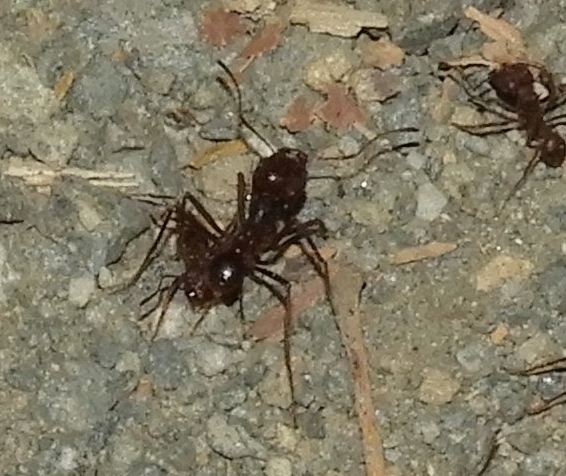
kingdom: Animalia
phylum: Arthropoda
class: Insecta
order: Hymenoptera
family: Formicidae
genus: Atta
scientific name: Atta mexicana
